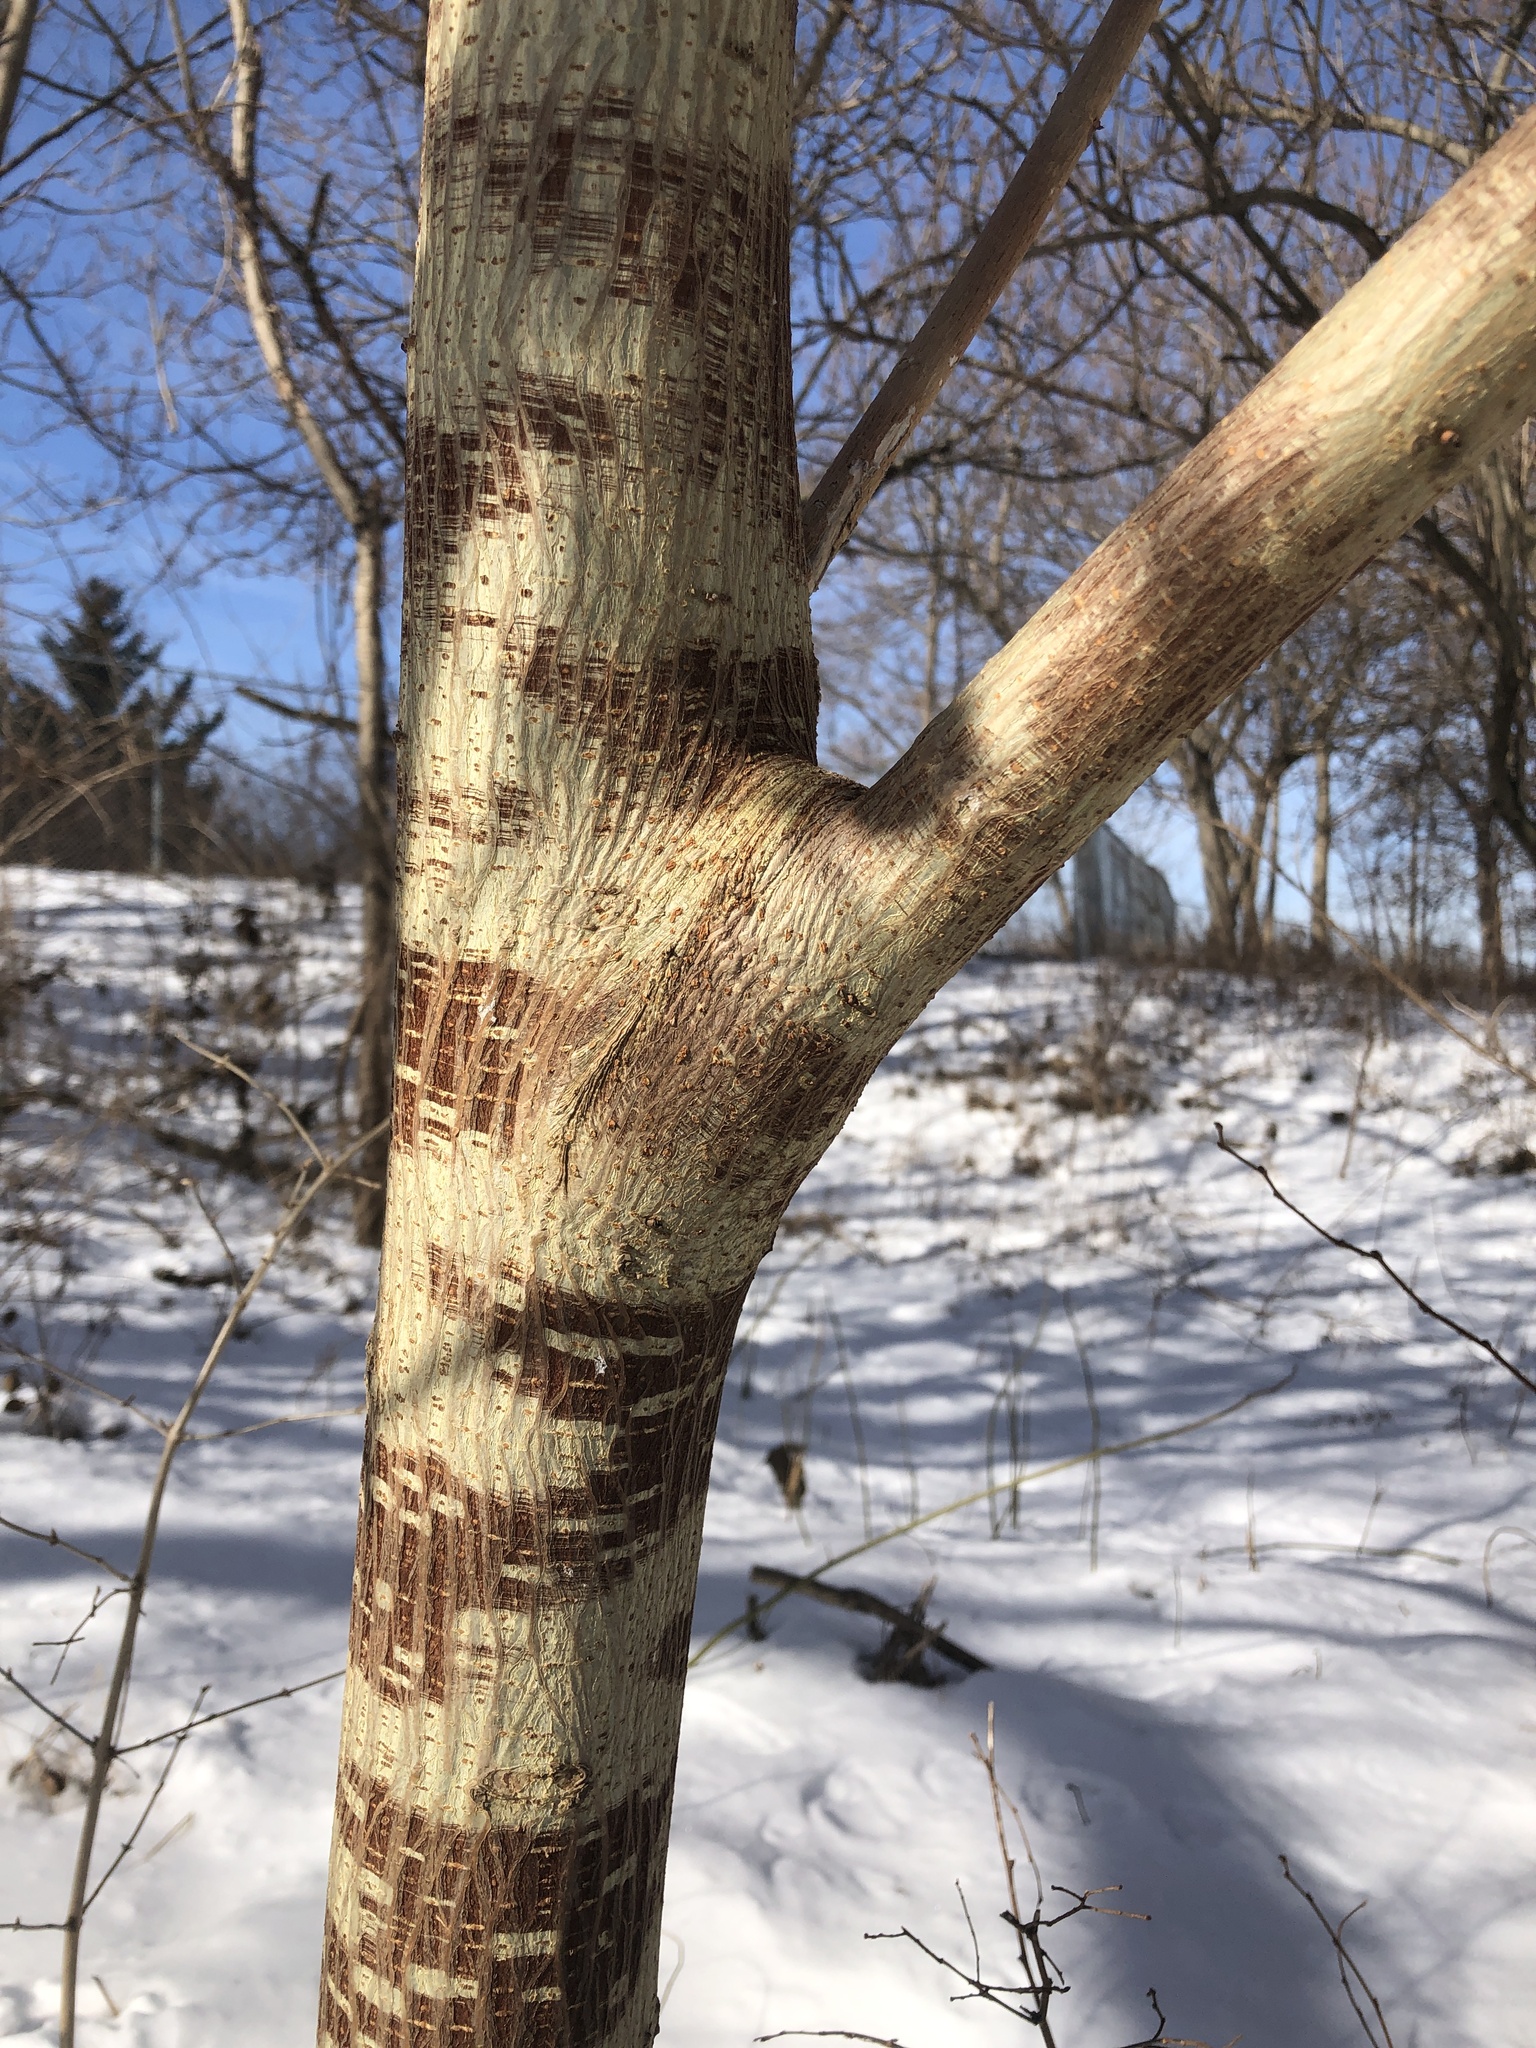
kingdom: Plantae
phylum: Tracheophyta
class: Magnoliopsida
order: Rosales
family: Moraceae
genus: Broussonetia
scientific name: Broussonetia papyrifera
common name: Paper mulberry
